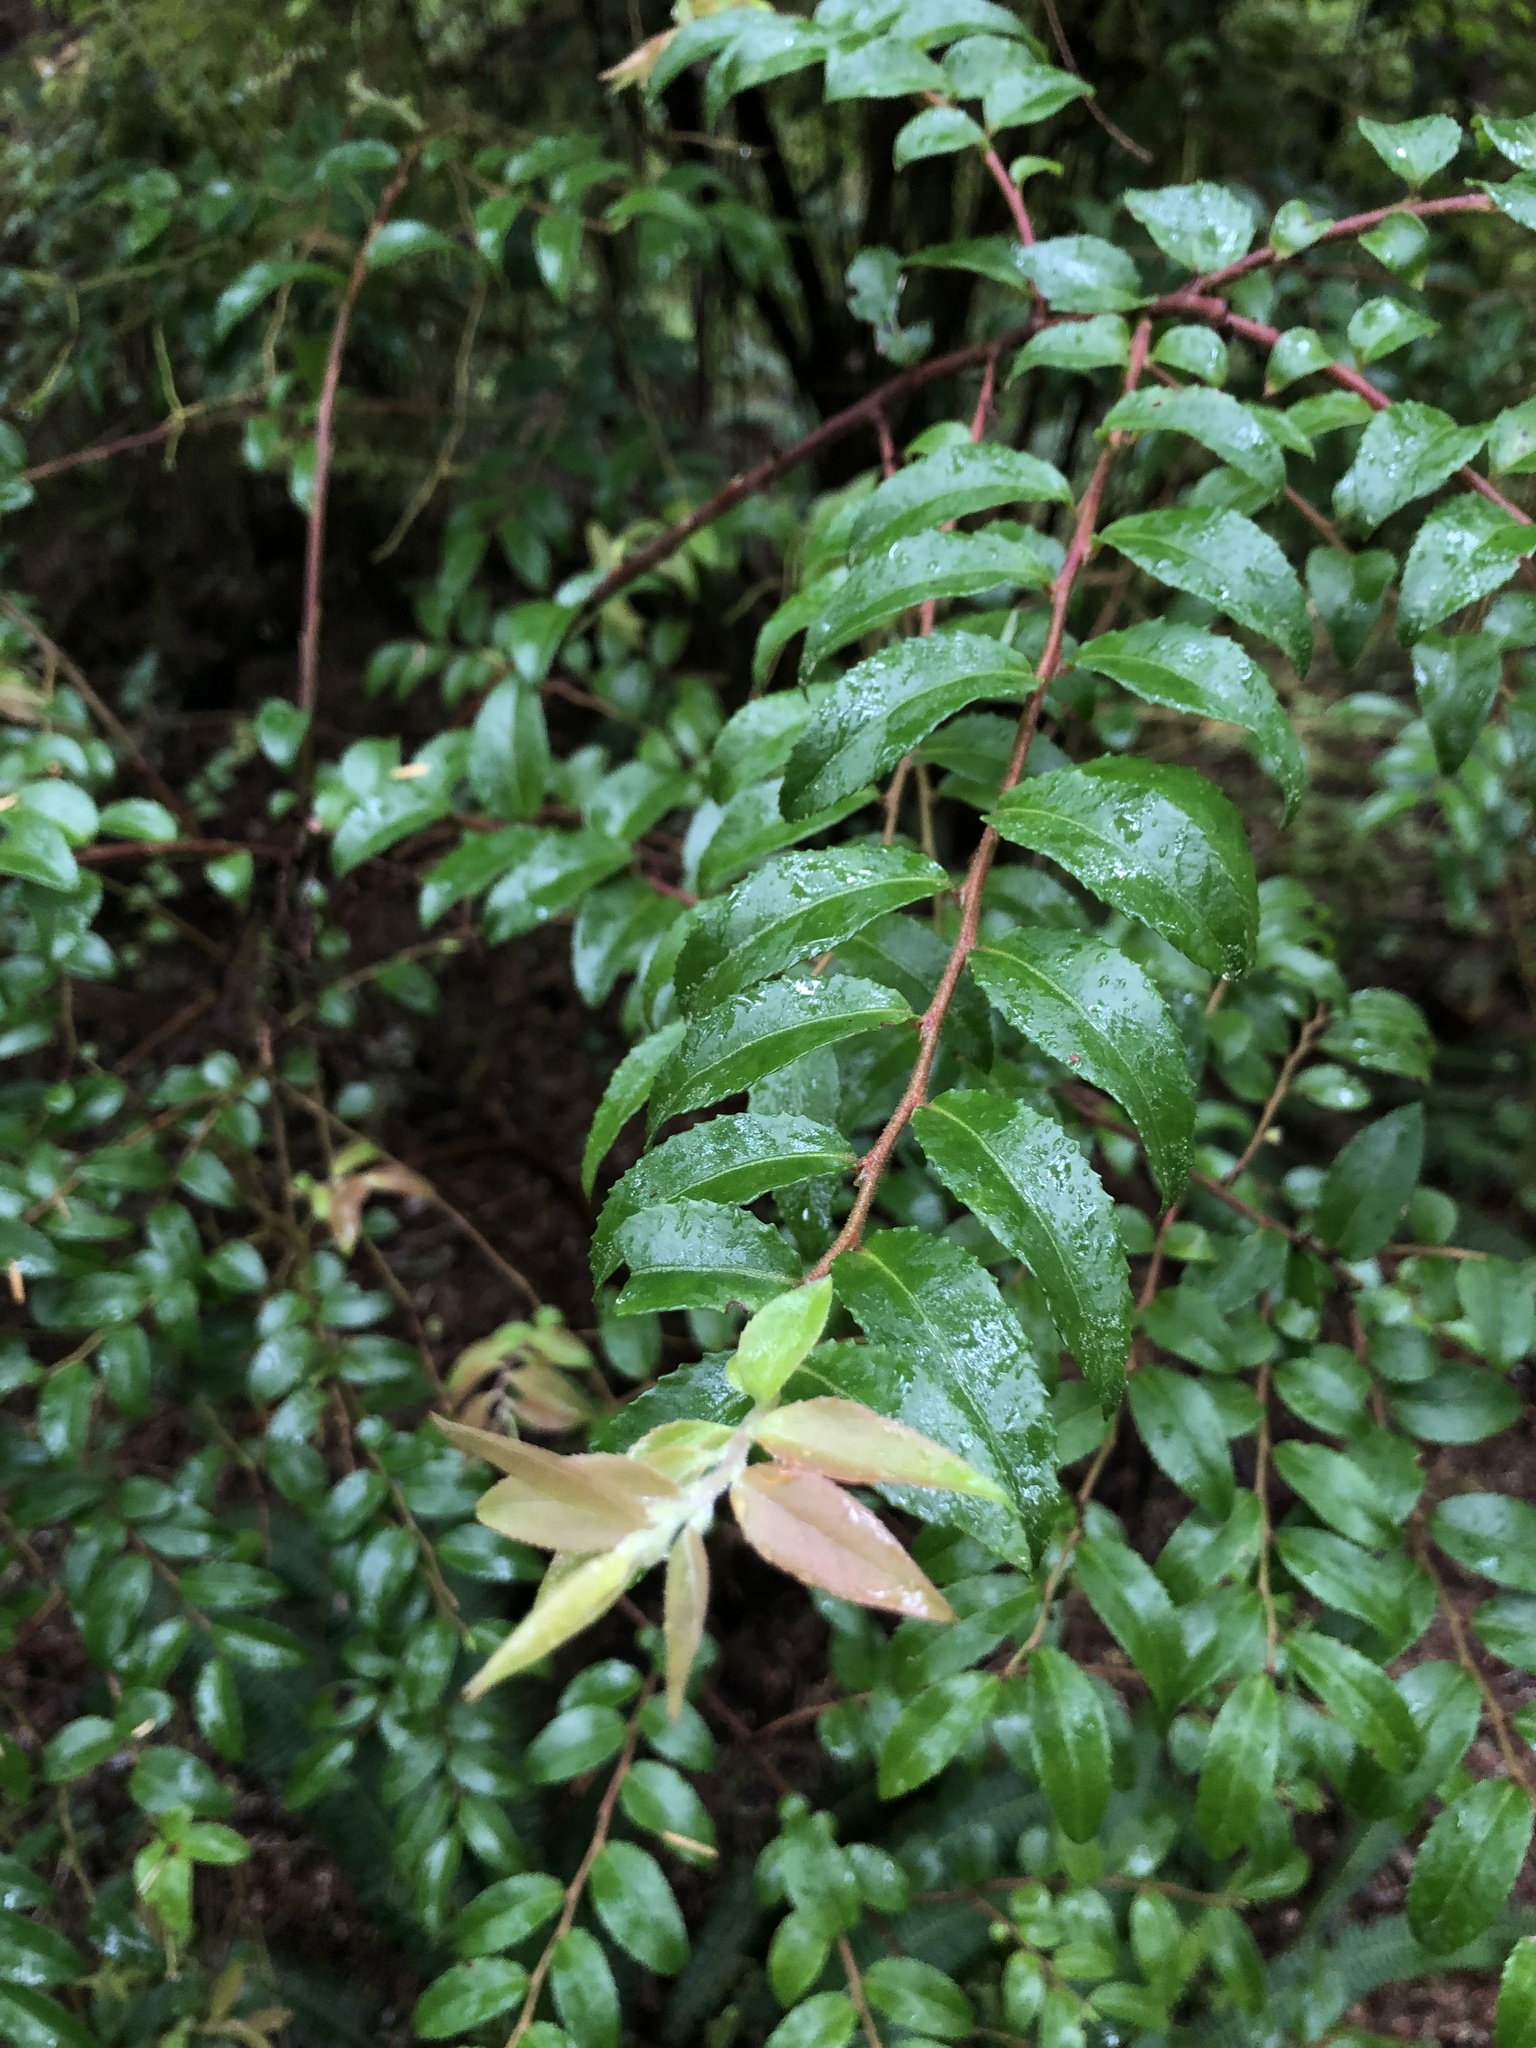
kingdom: Plantae
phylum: Tracheophyta
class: Magnoliopsida
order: Ericales
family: Ericaceae
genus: Vaccinium
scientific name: Vaccinium ovatum
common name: California-huckleberry
